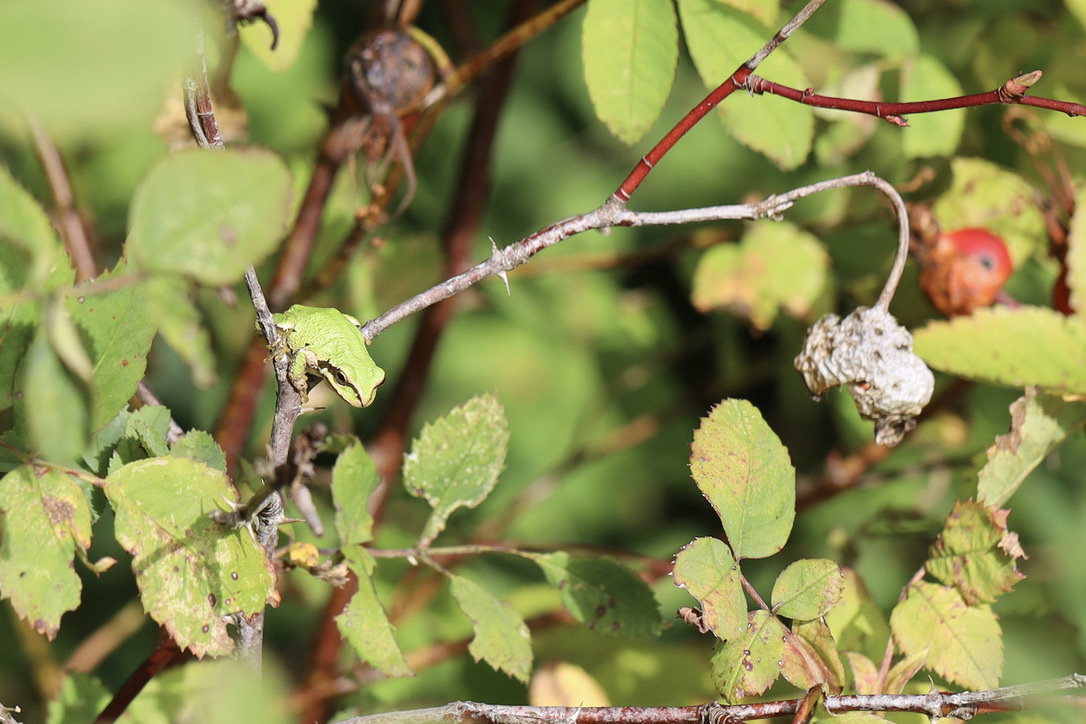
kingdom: Animalia
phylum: Chordata
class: Amphibia
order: Anura
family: Hylidae
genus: Pseudacris
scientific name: Pseudacris regilla
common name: Pacific chorus frog
